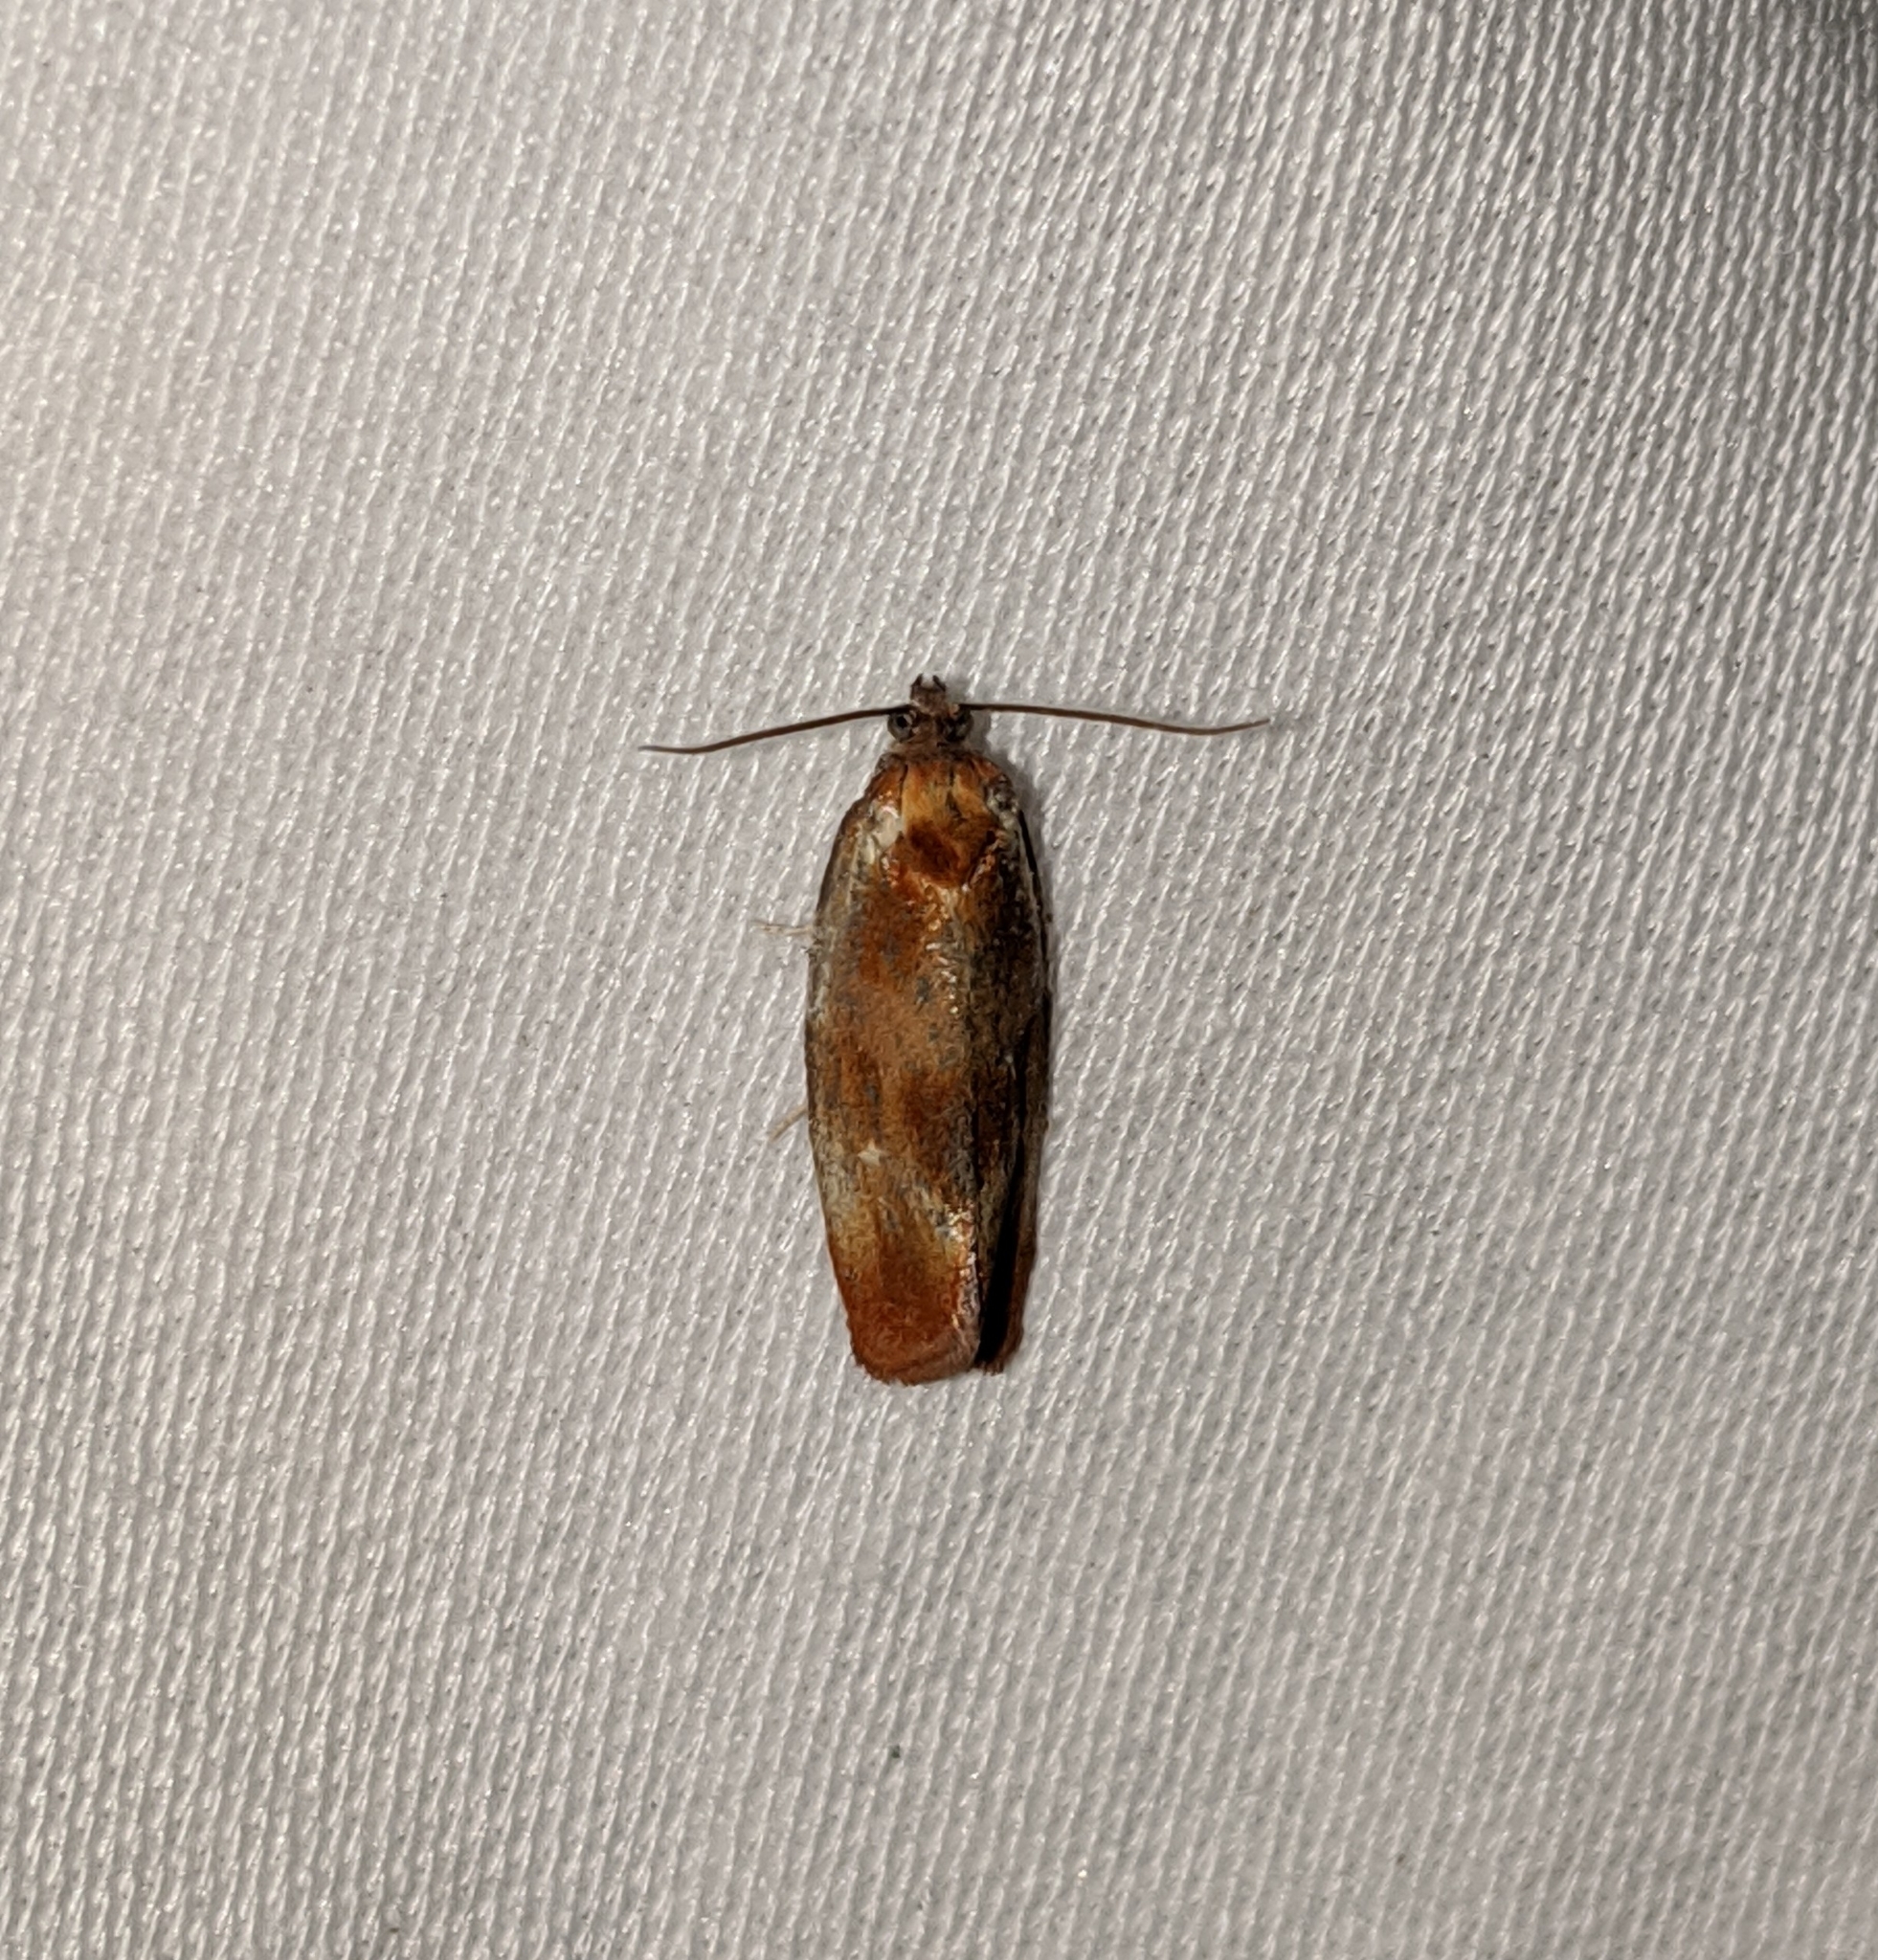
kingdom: Animalia
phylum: Arthropoda
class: Insecta
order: Lepidoptera
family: Tortricidae
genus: Eulia
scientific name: Eulia ministrana
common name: Brassy twist
